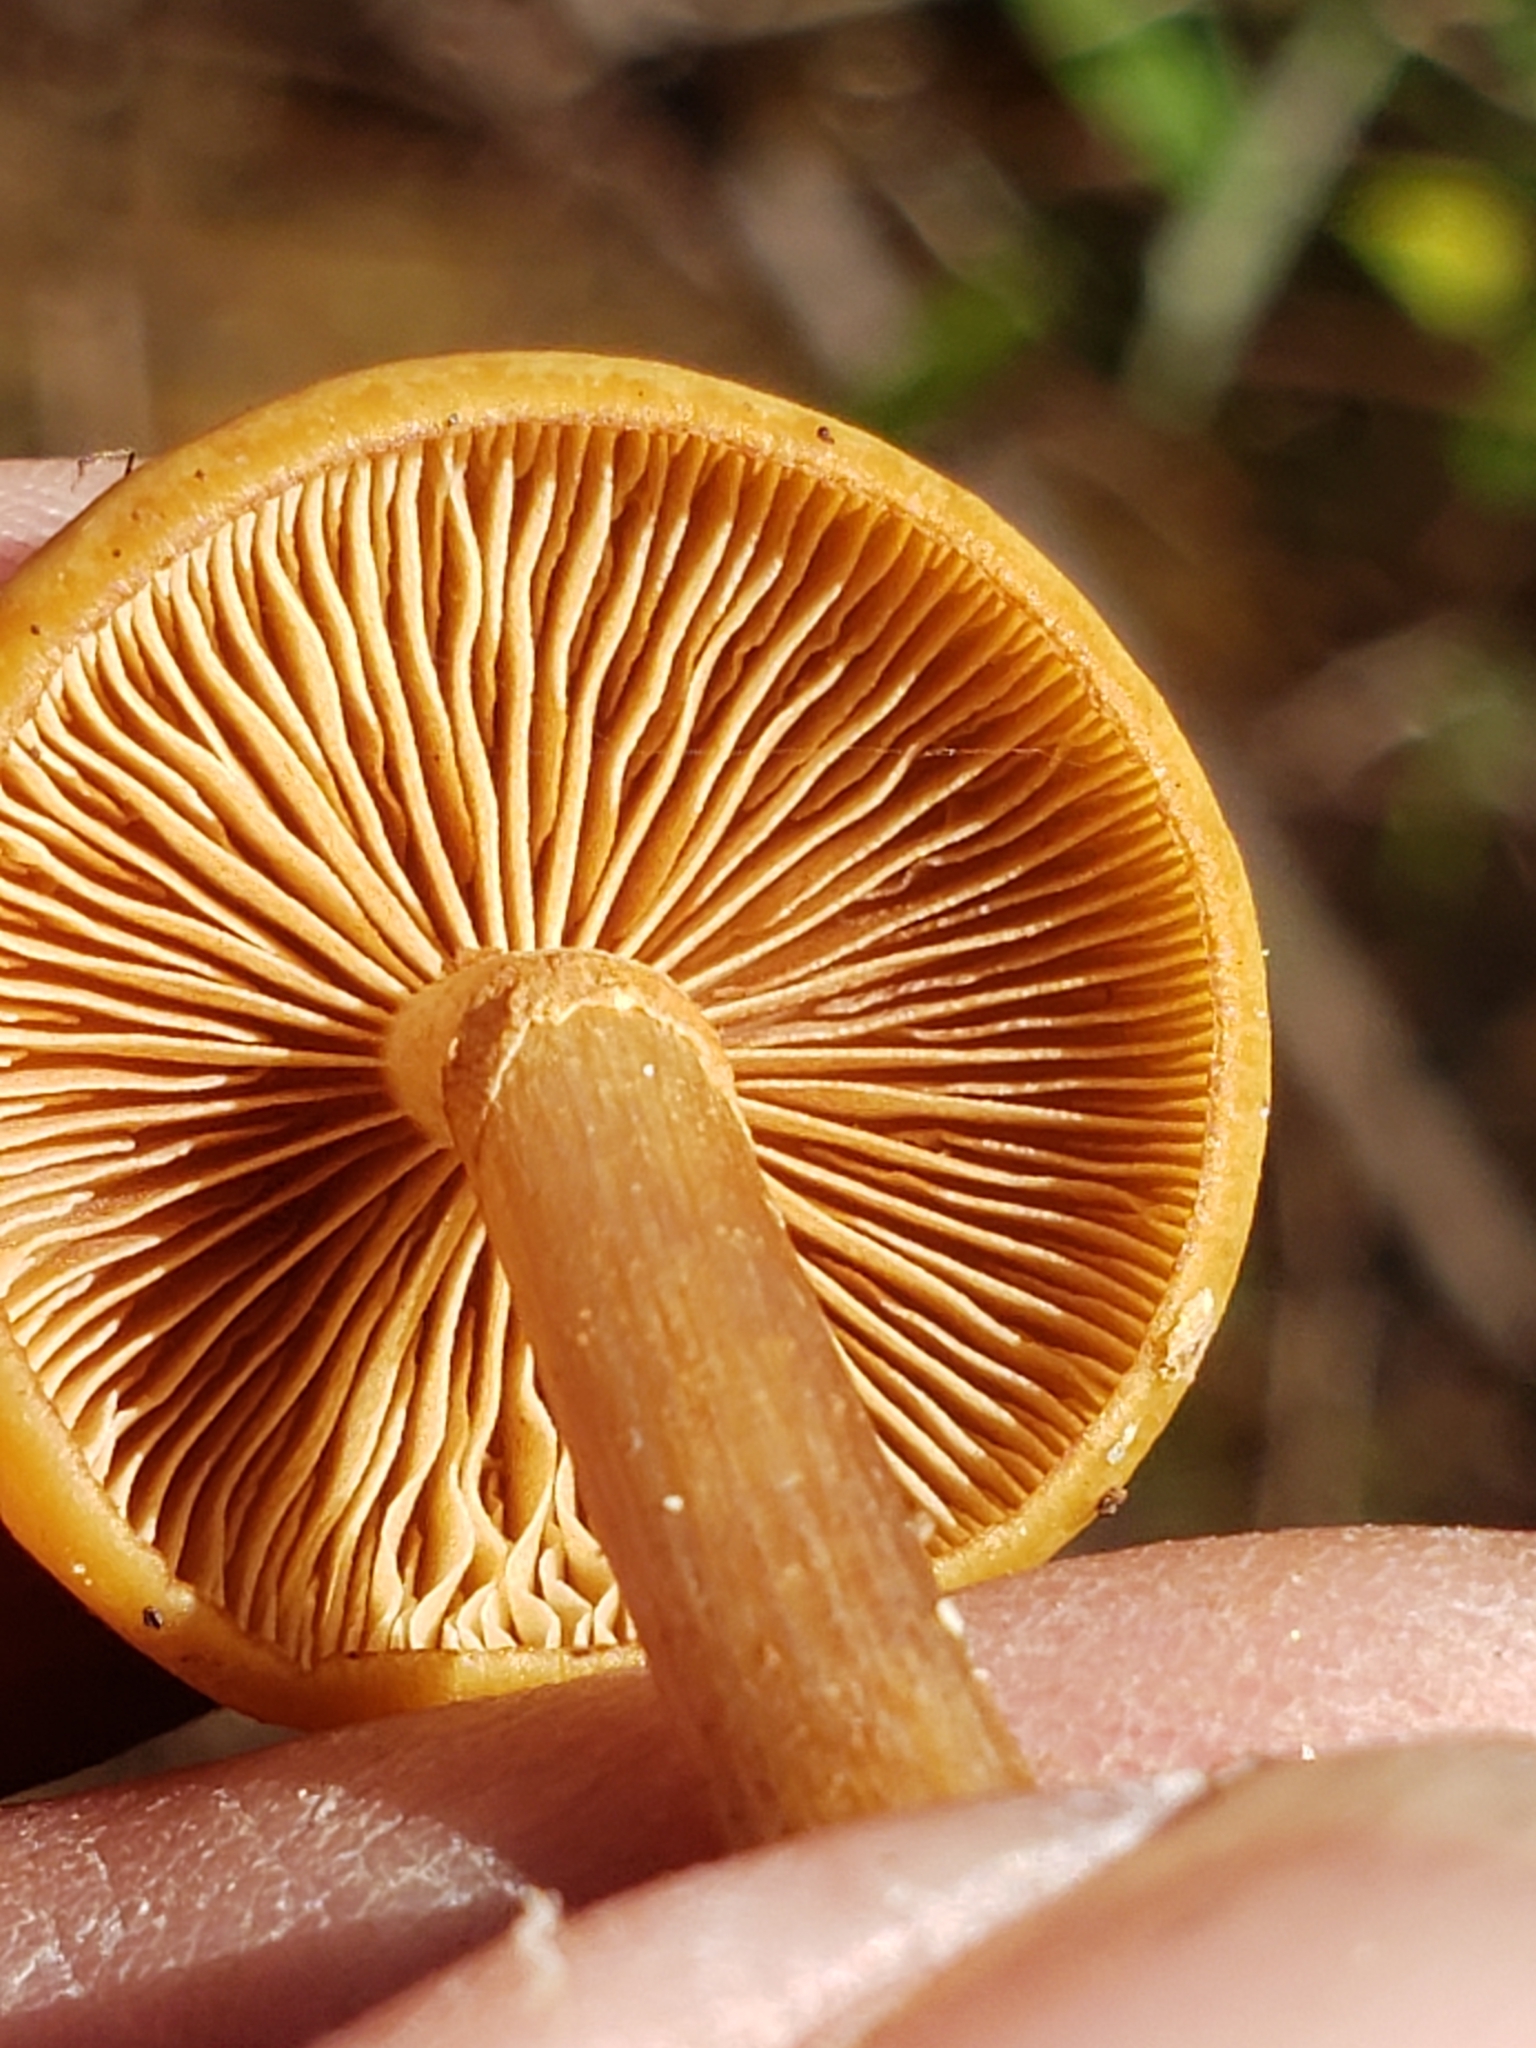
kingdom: Fungi
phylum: Basidiomycota
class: Agaricomycetes
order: Agaricales
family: Hymenogastraceae
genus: Galerina
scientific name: Galerina marginata
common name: Funeral bell
